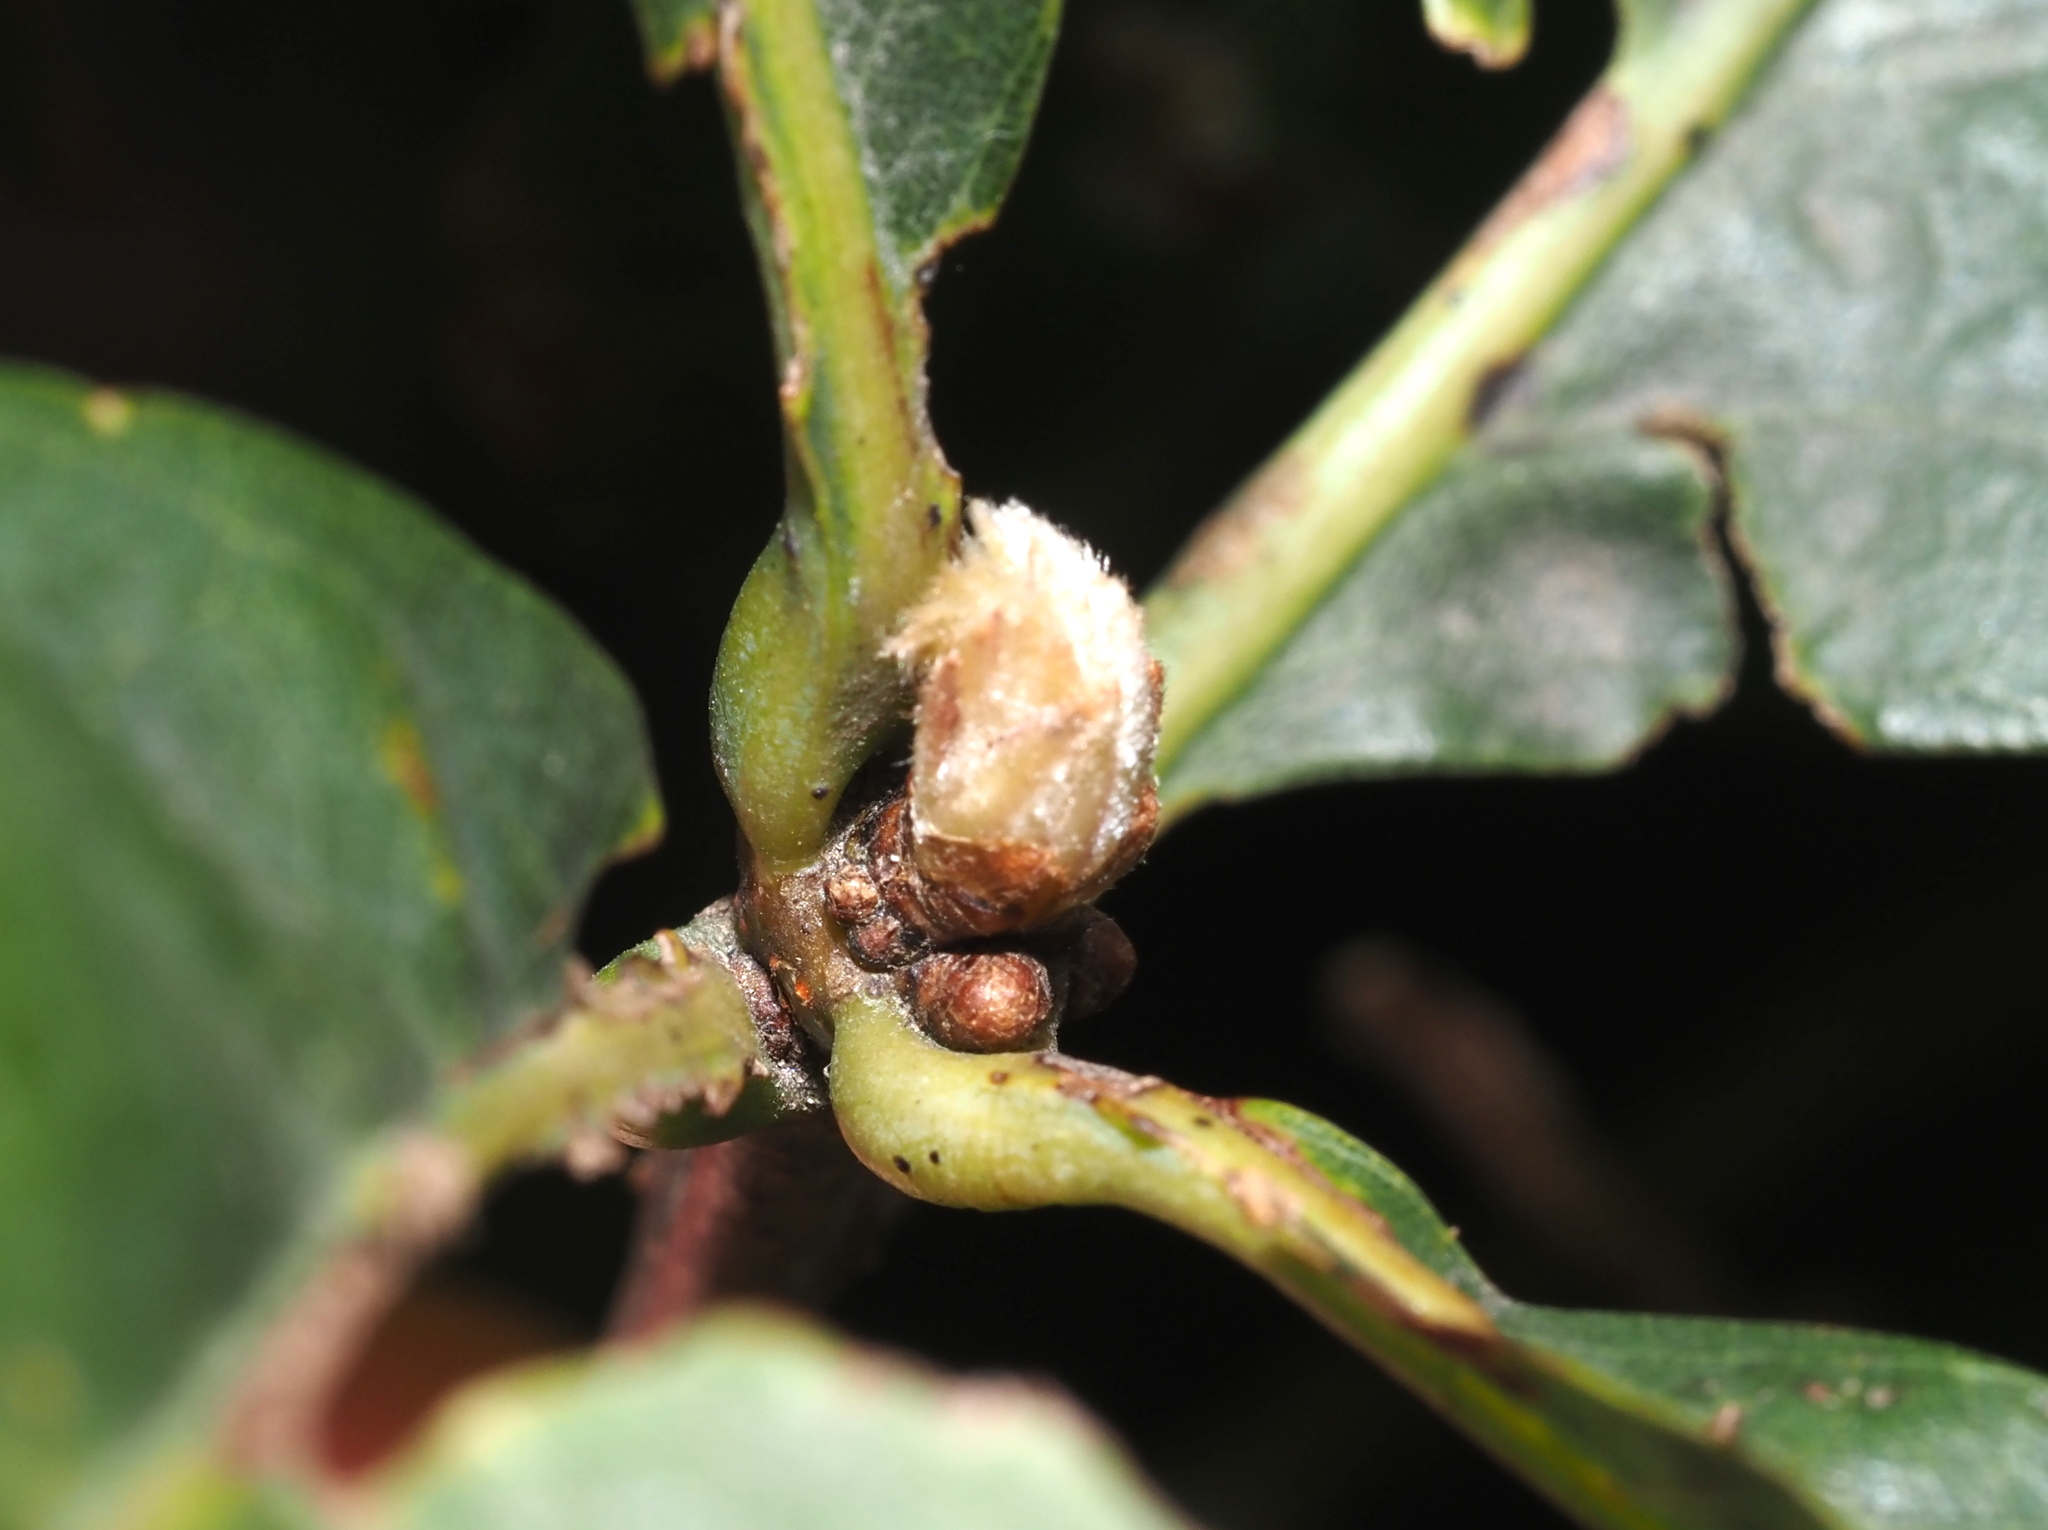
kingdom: Animalia
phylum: Arthropoda
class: Insecta
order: Hymenoptera
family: Cynipidae
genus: Andricus
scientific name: Andricus
